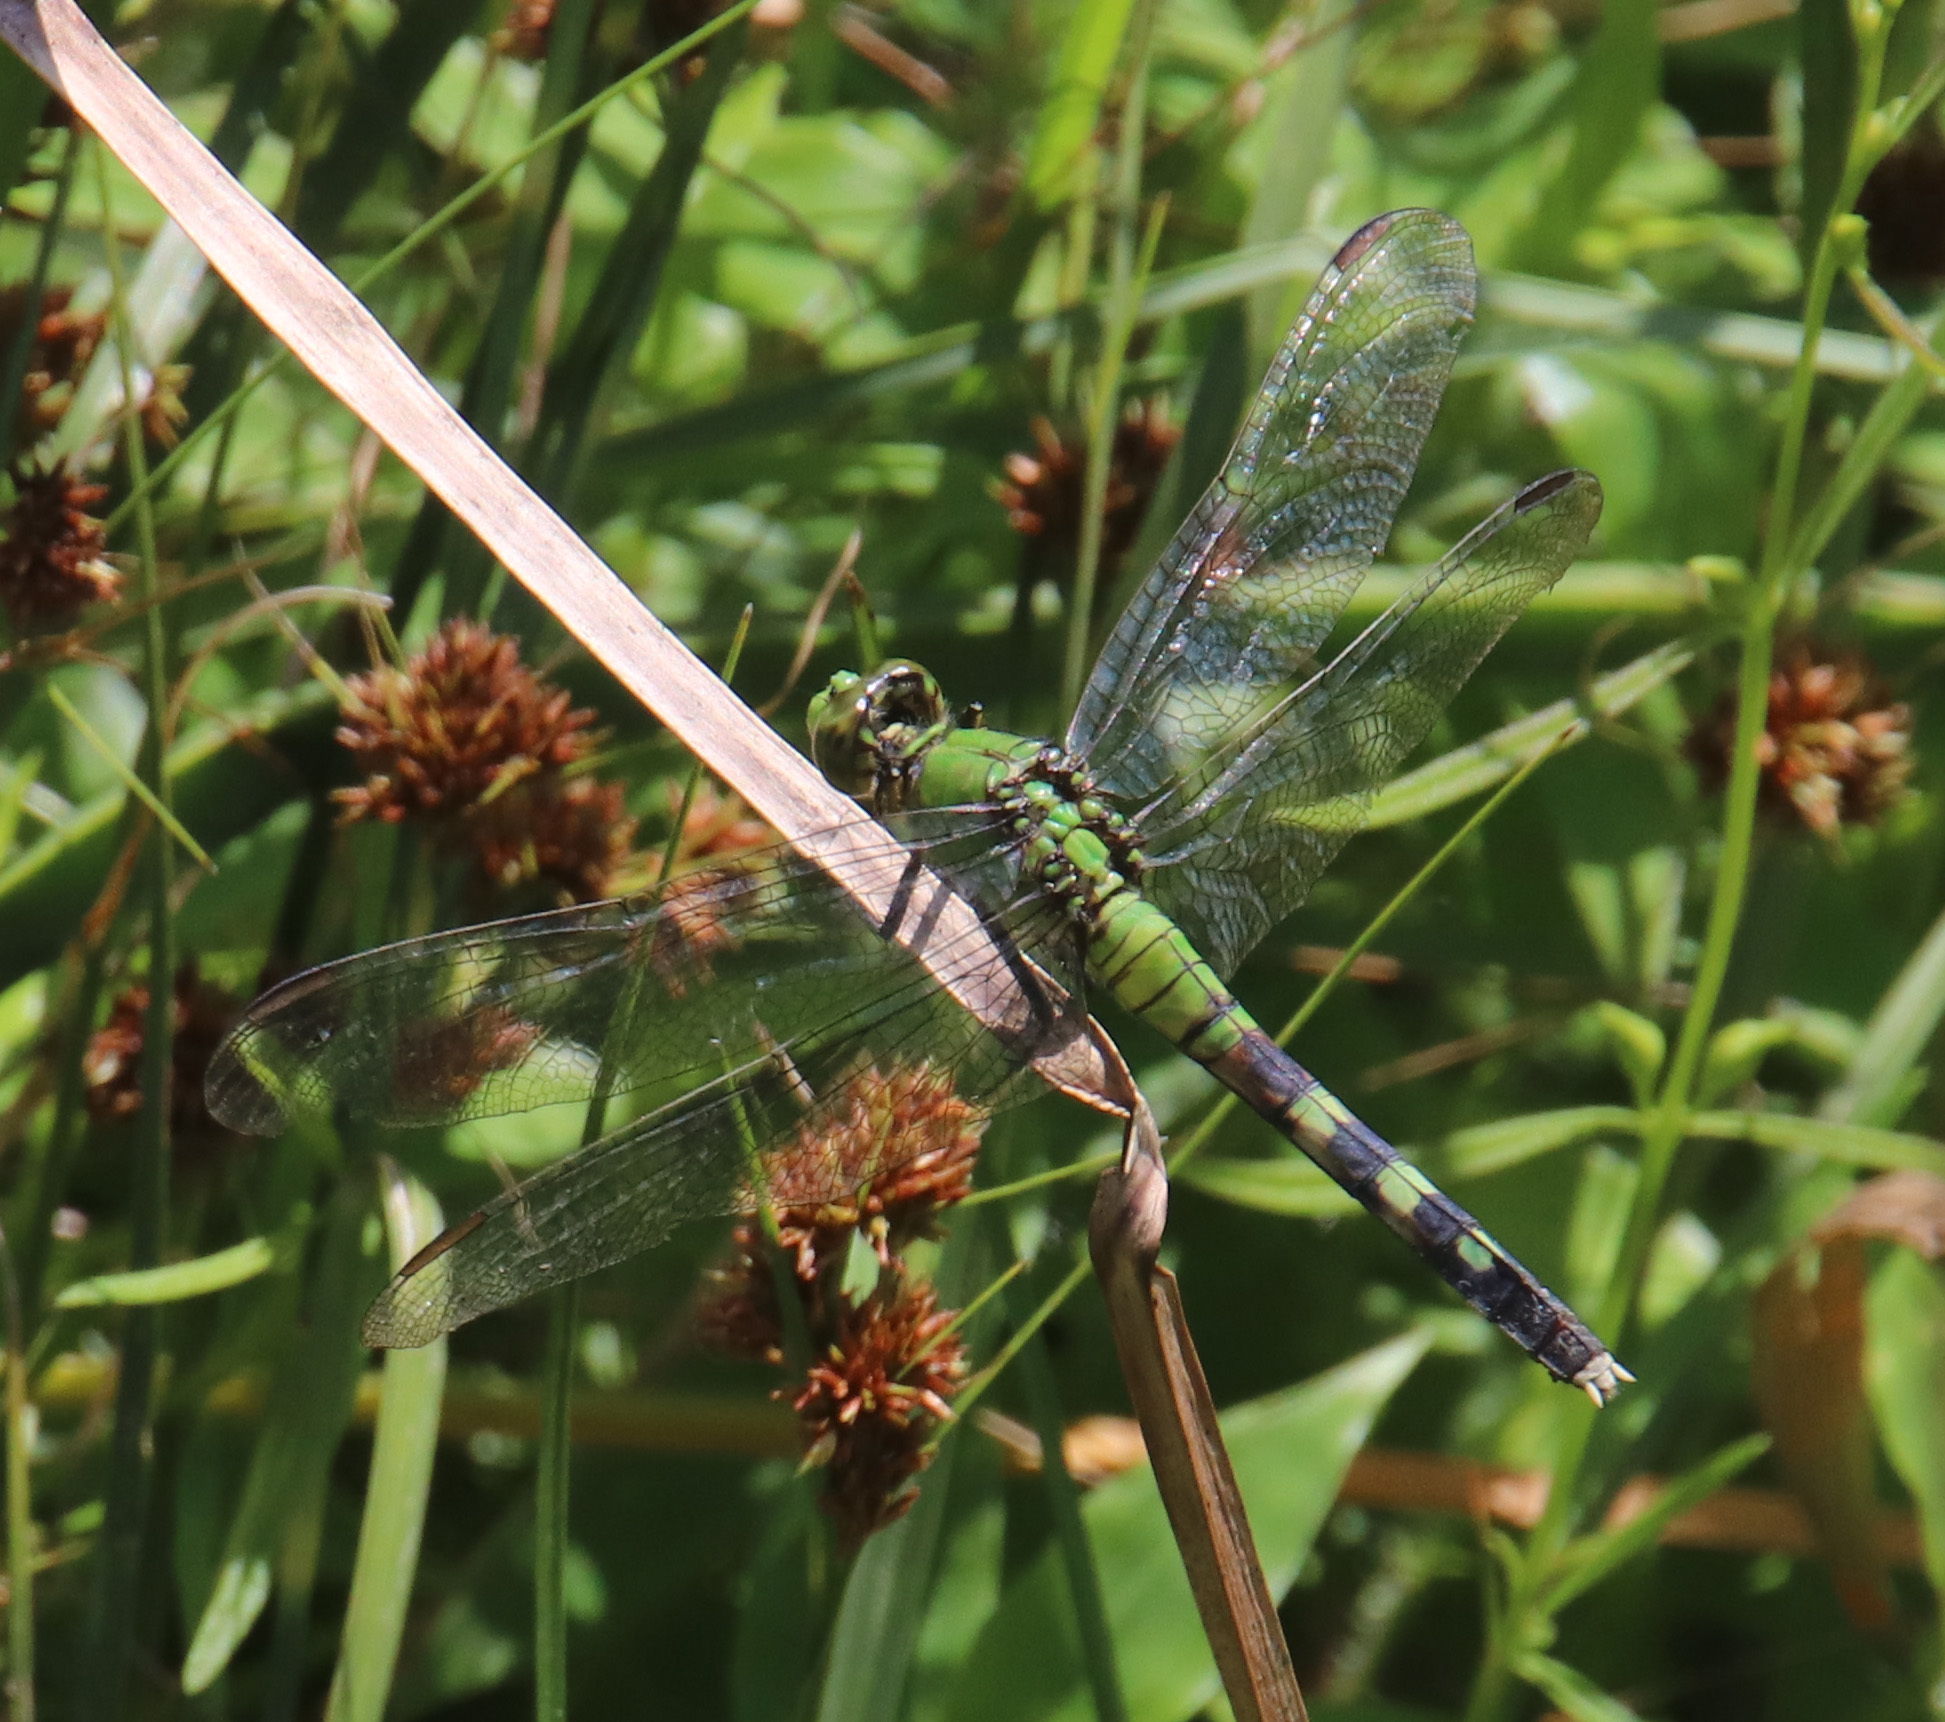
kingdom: Animalia
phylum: Arthropoda
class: Insecta
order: Odonata
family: Libellulidae
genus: Erythemis
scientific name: Erythemis simplicicollis
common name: Eastern pondhawk
